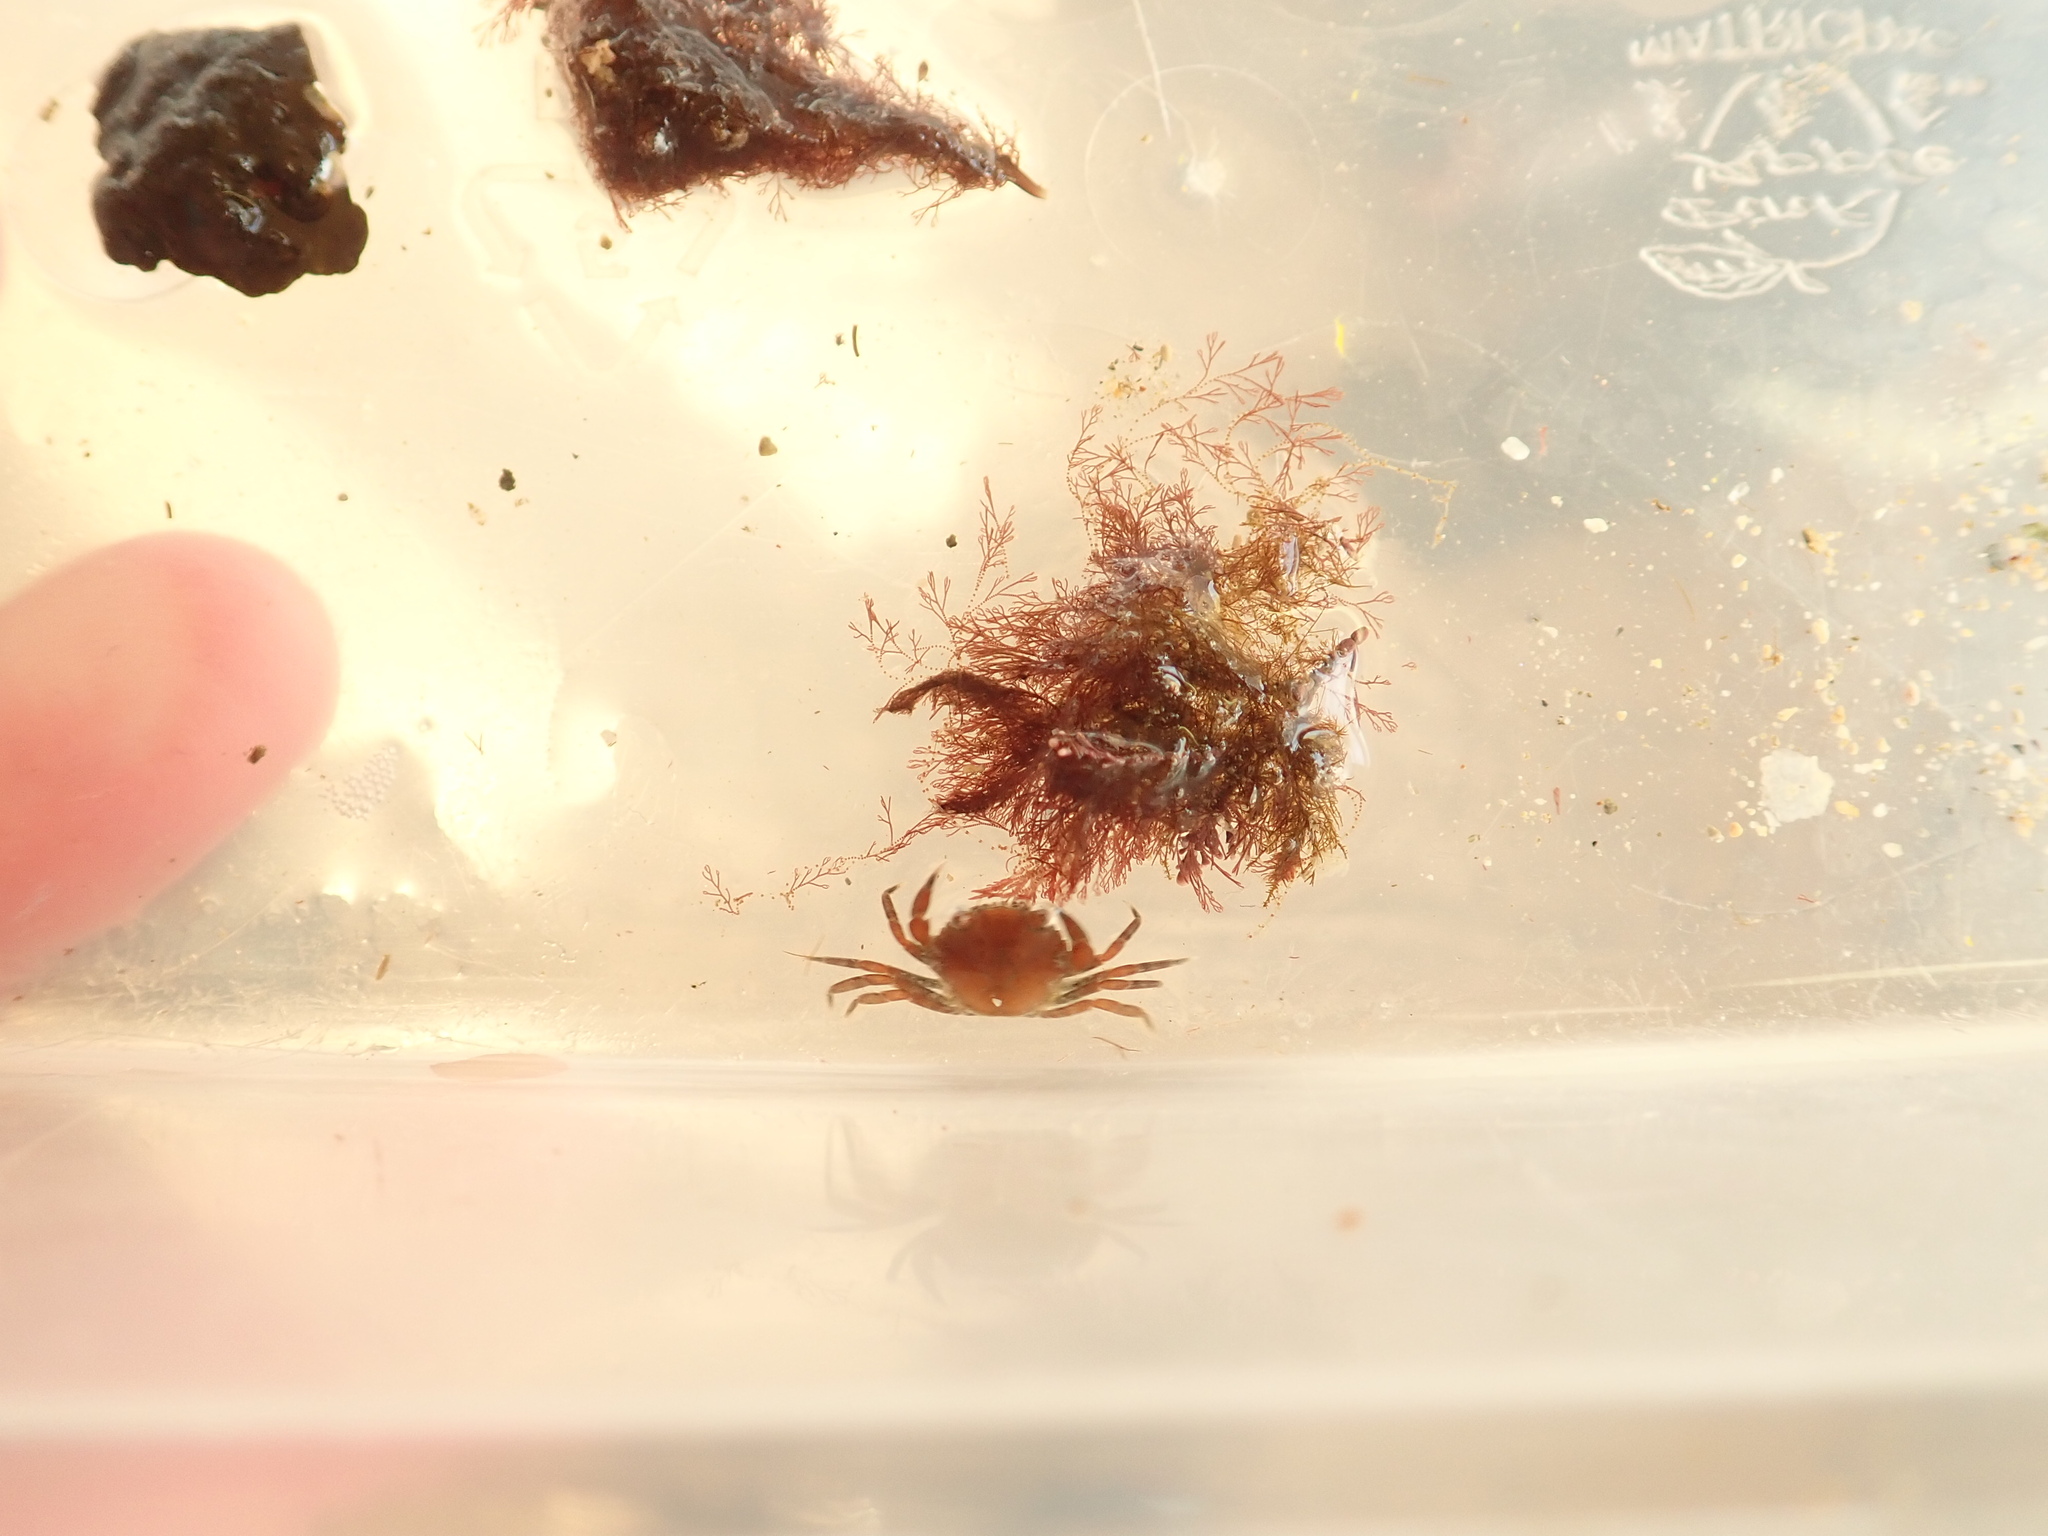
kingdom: Animalia
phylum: Arthropoda
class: Malacostraca
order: Decapoda
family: Carcinidae
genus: Carcinus
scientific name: Carcinus maenas
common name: European green crab
